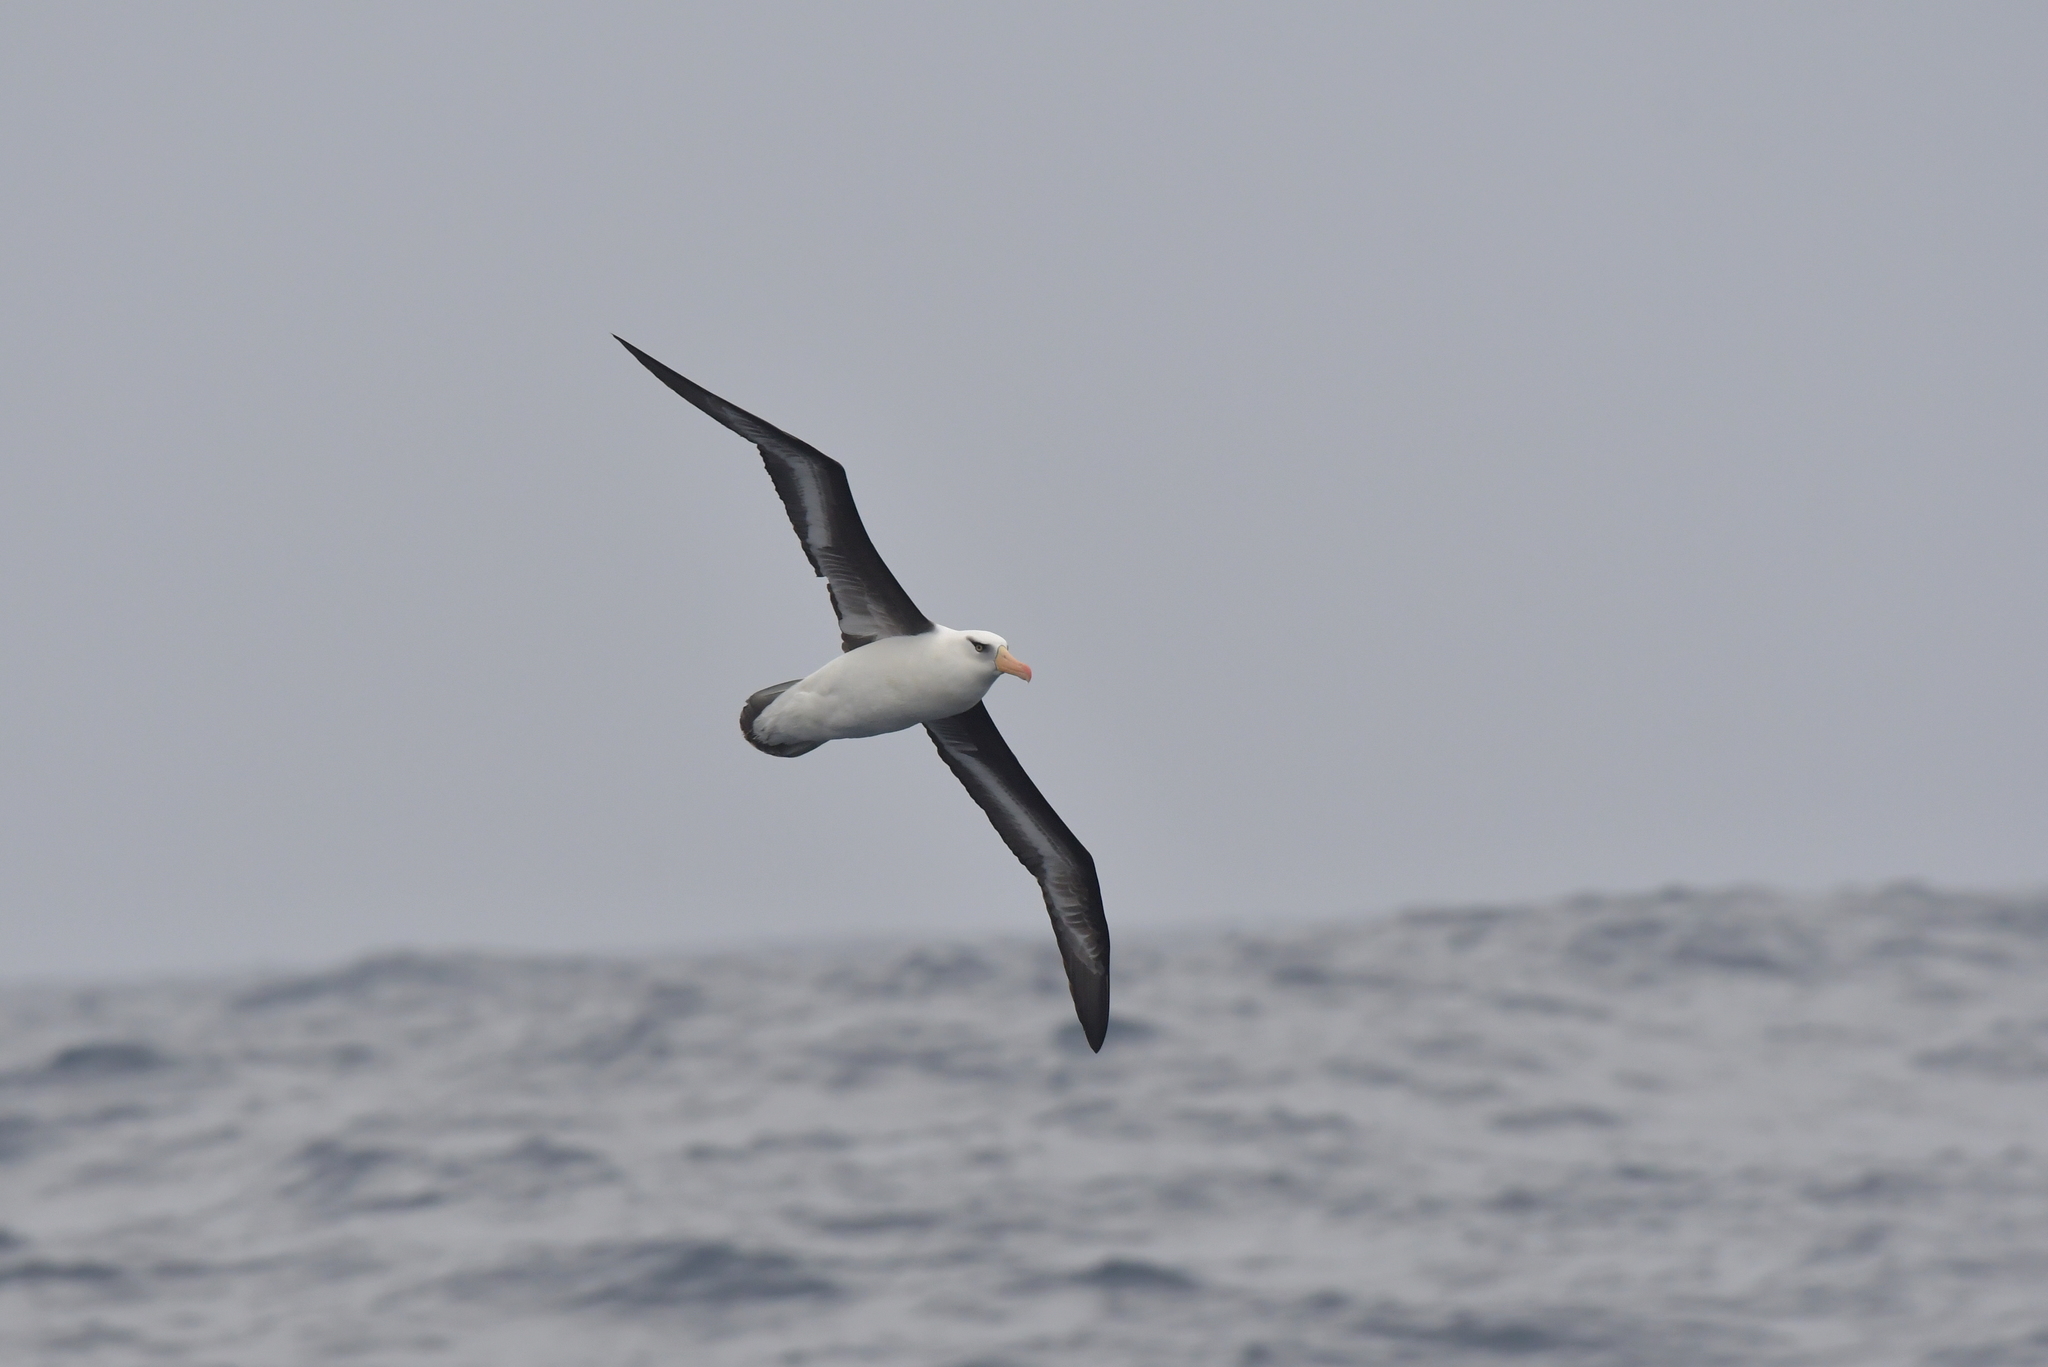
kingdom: Animalia
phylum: Chordata
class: Aves
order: Procellariiformes
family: Diomedeidae
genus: Thalassarche
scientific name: Thalassarche impavida
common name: Campbell albatross
